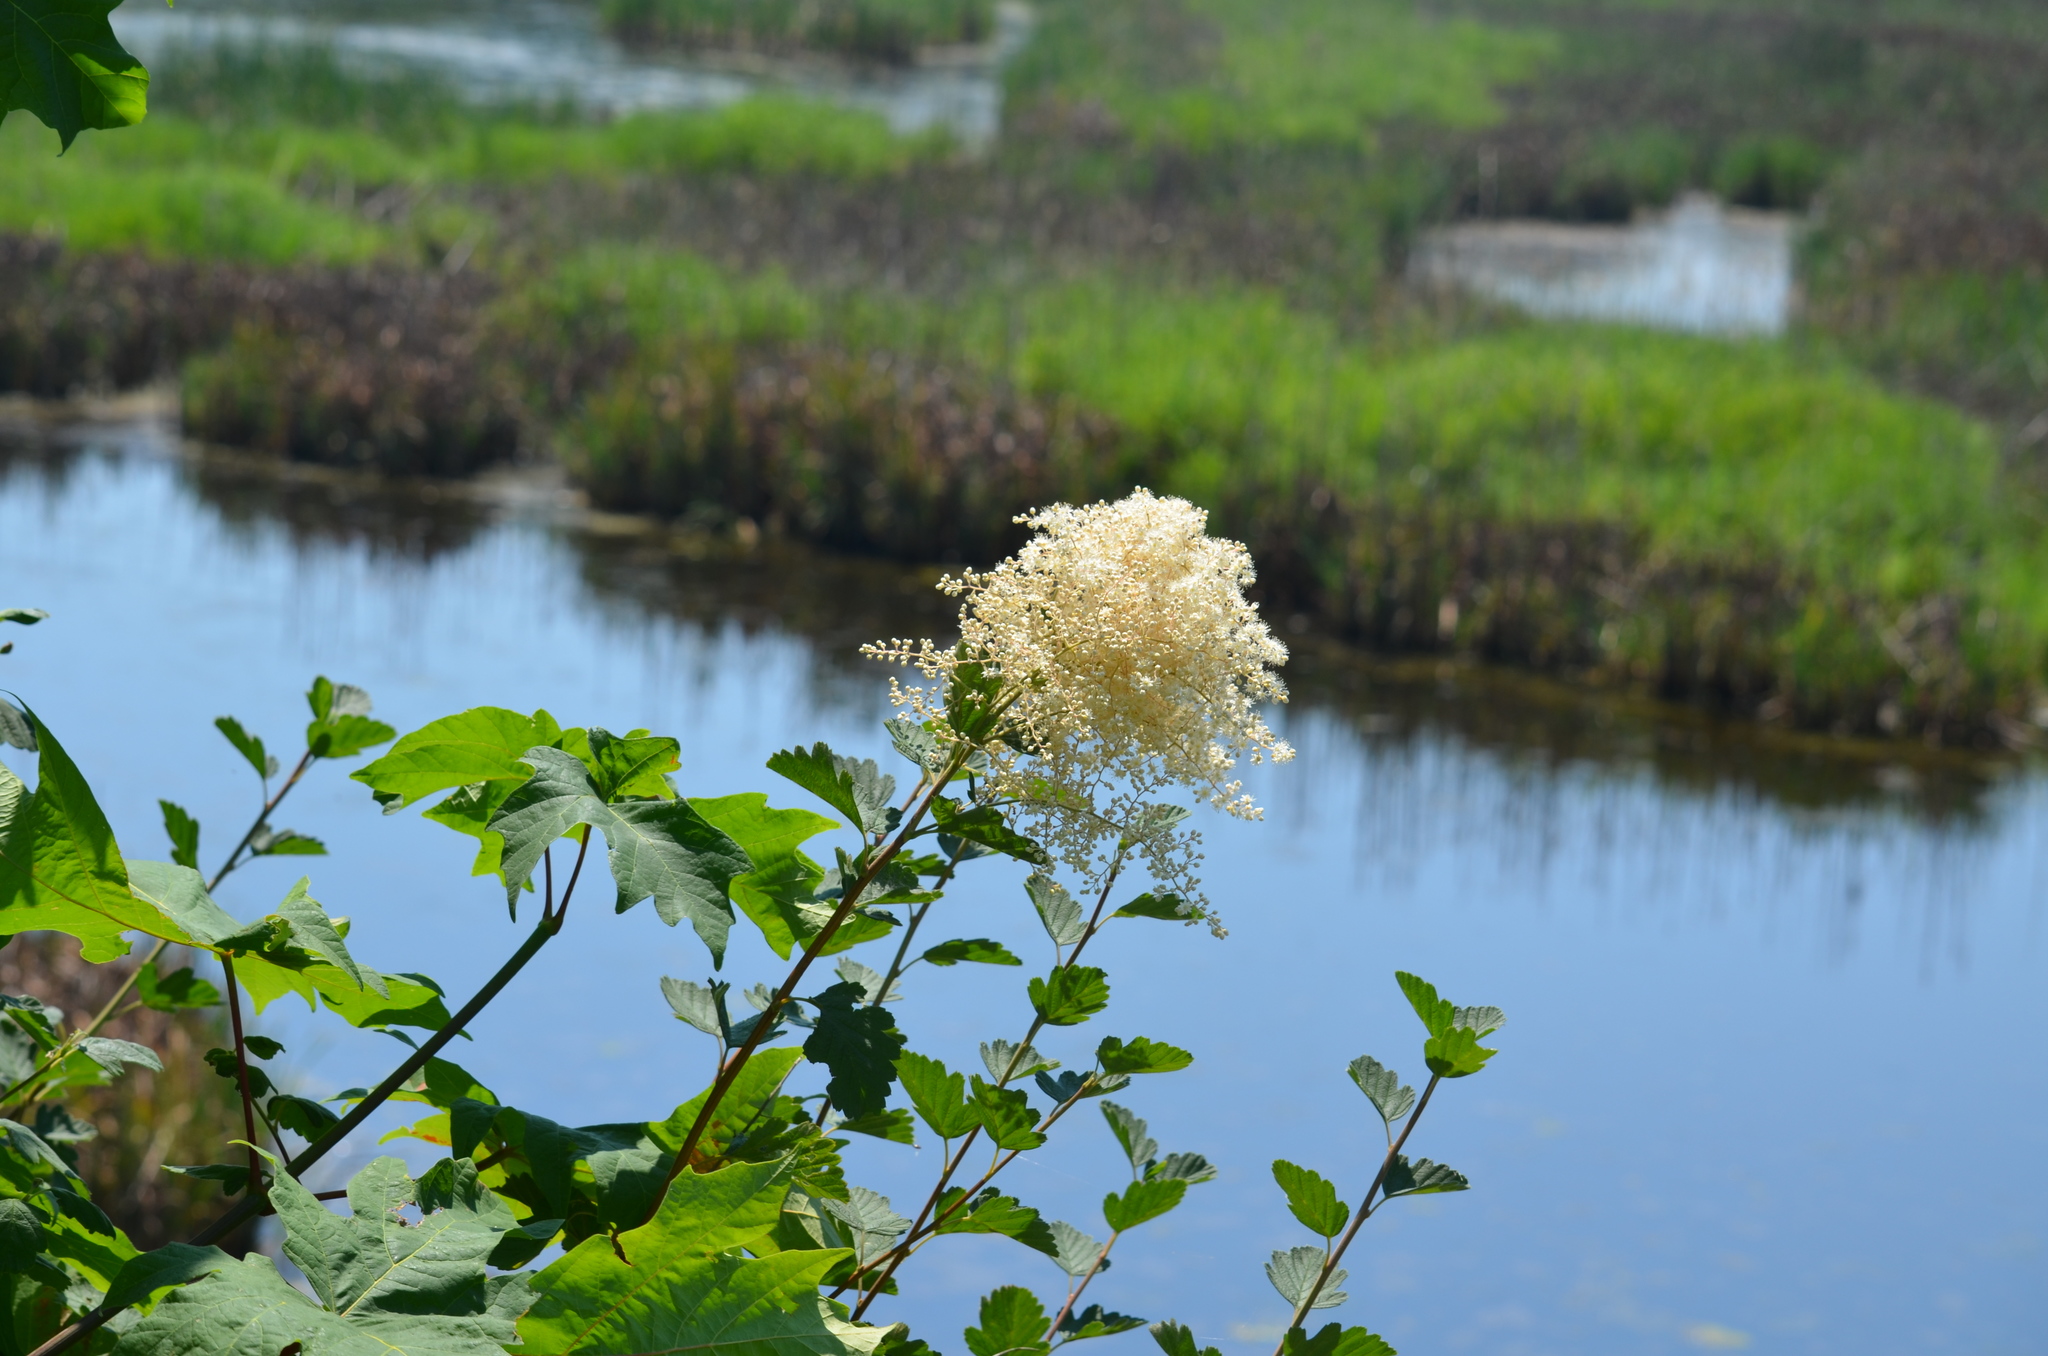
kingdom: Plantae
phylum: Tracheophyta
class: Magnoliopsida
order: Rosales
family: Rosaceae
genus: Holodiscus
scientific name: Holodiscus discolor
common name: Oceanspray
